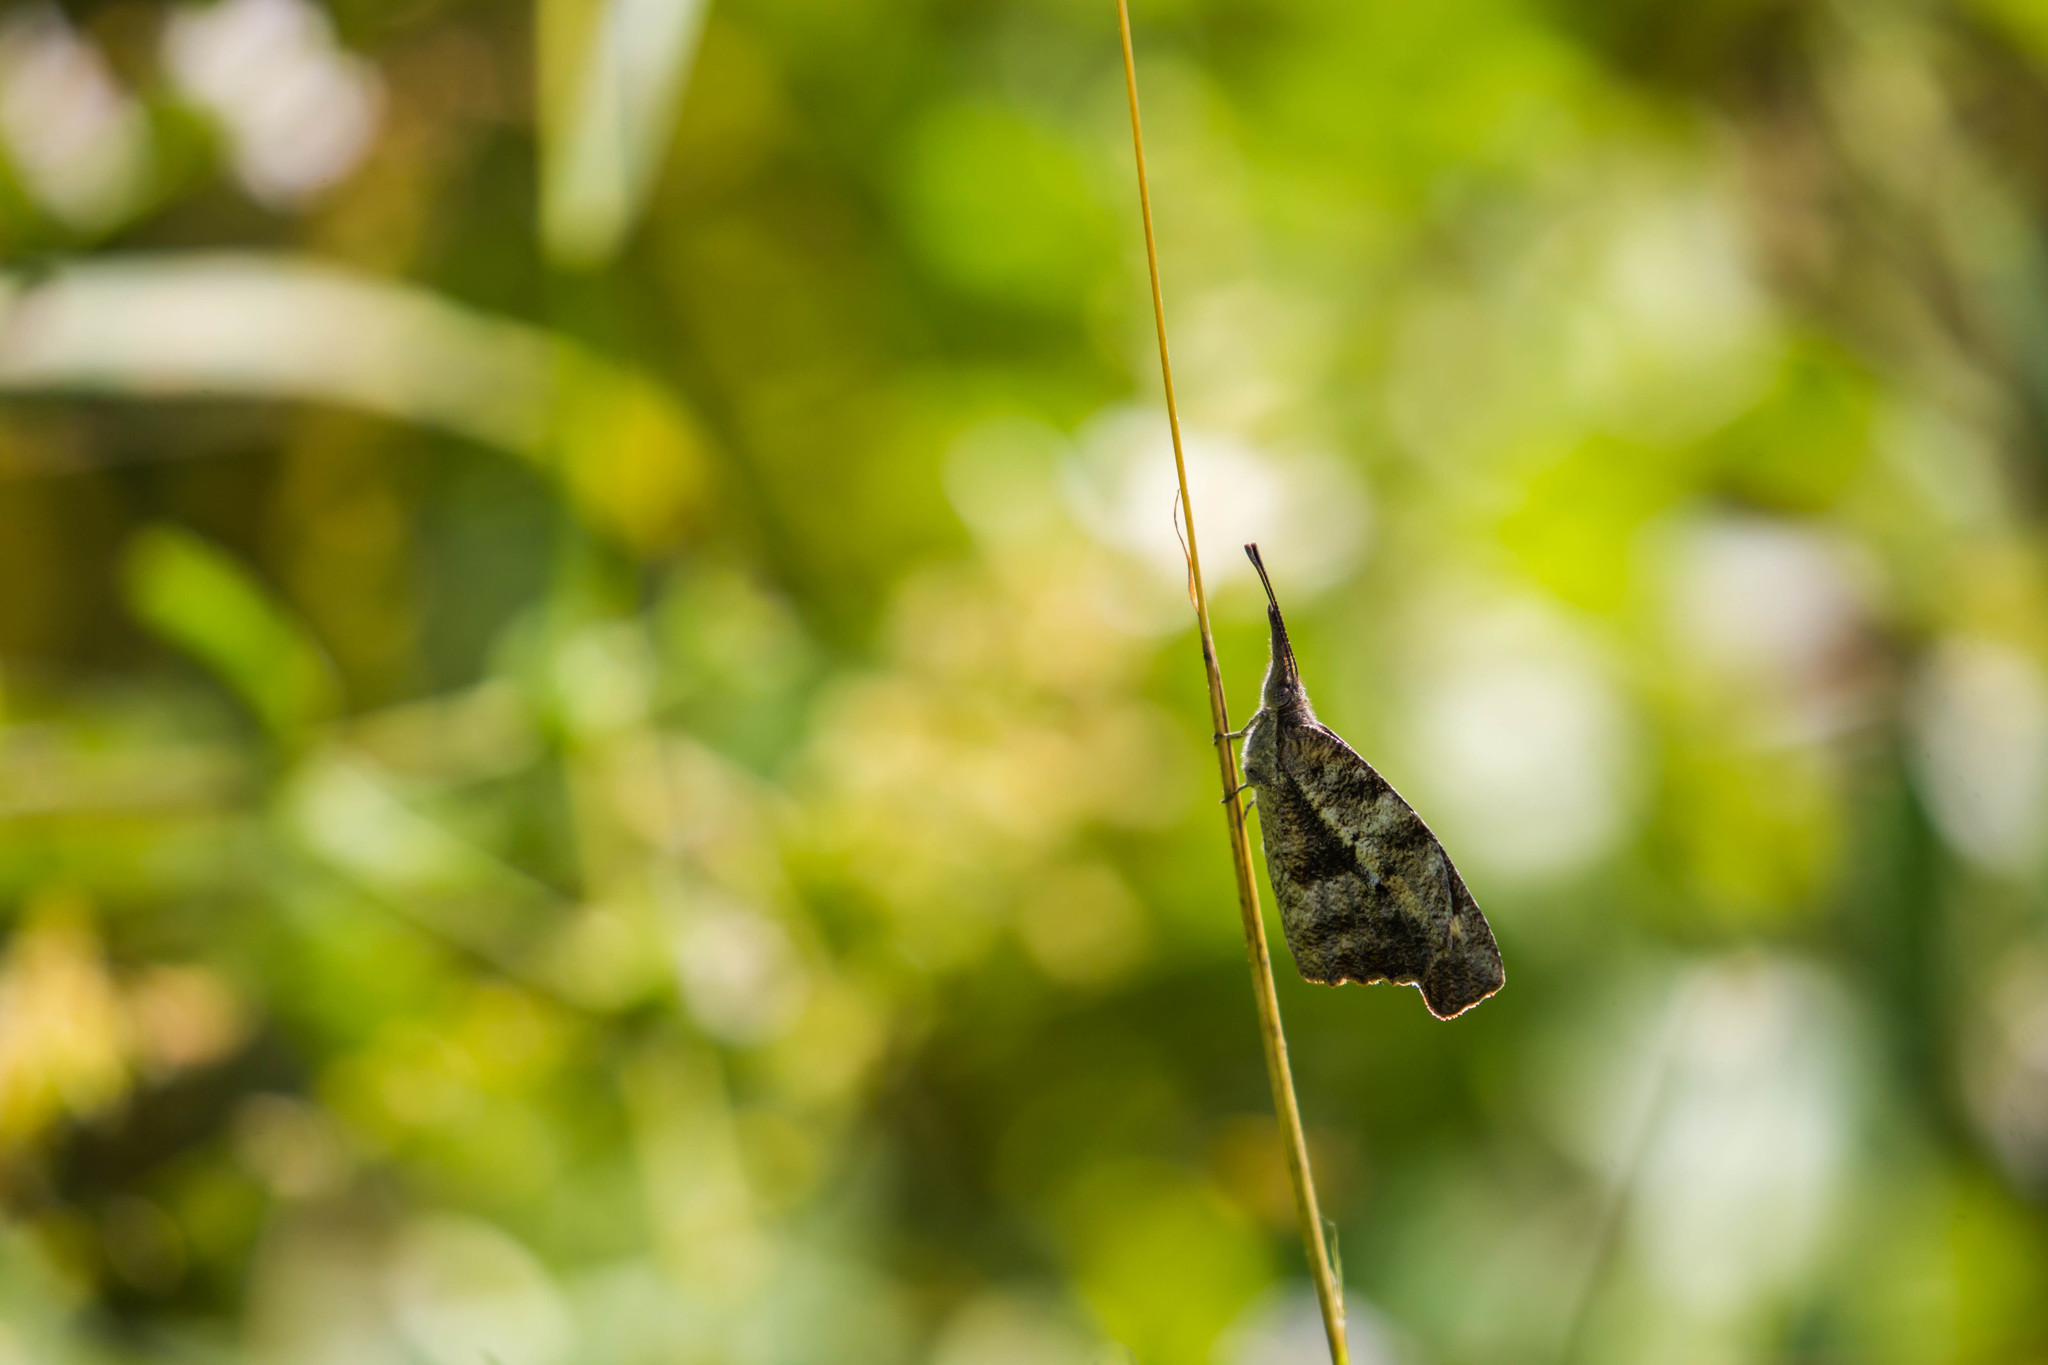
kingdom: Animalia
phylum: Arthropoda
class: Insecta
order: Lepidoptera
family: Nymphalidae
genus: Libytheana
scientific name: Libytheana carinenta
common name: American snout
